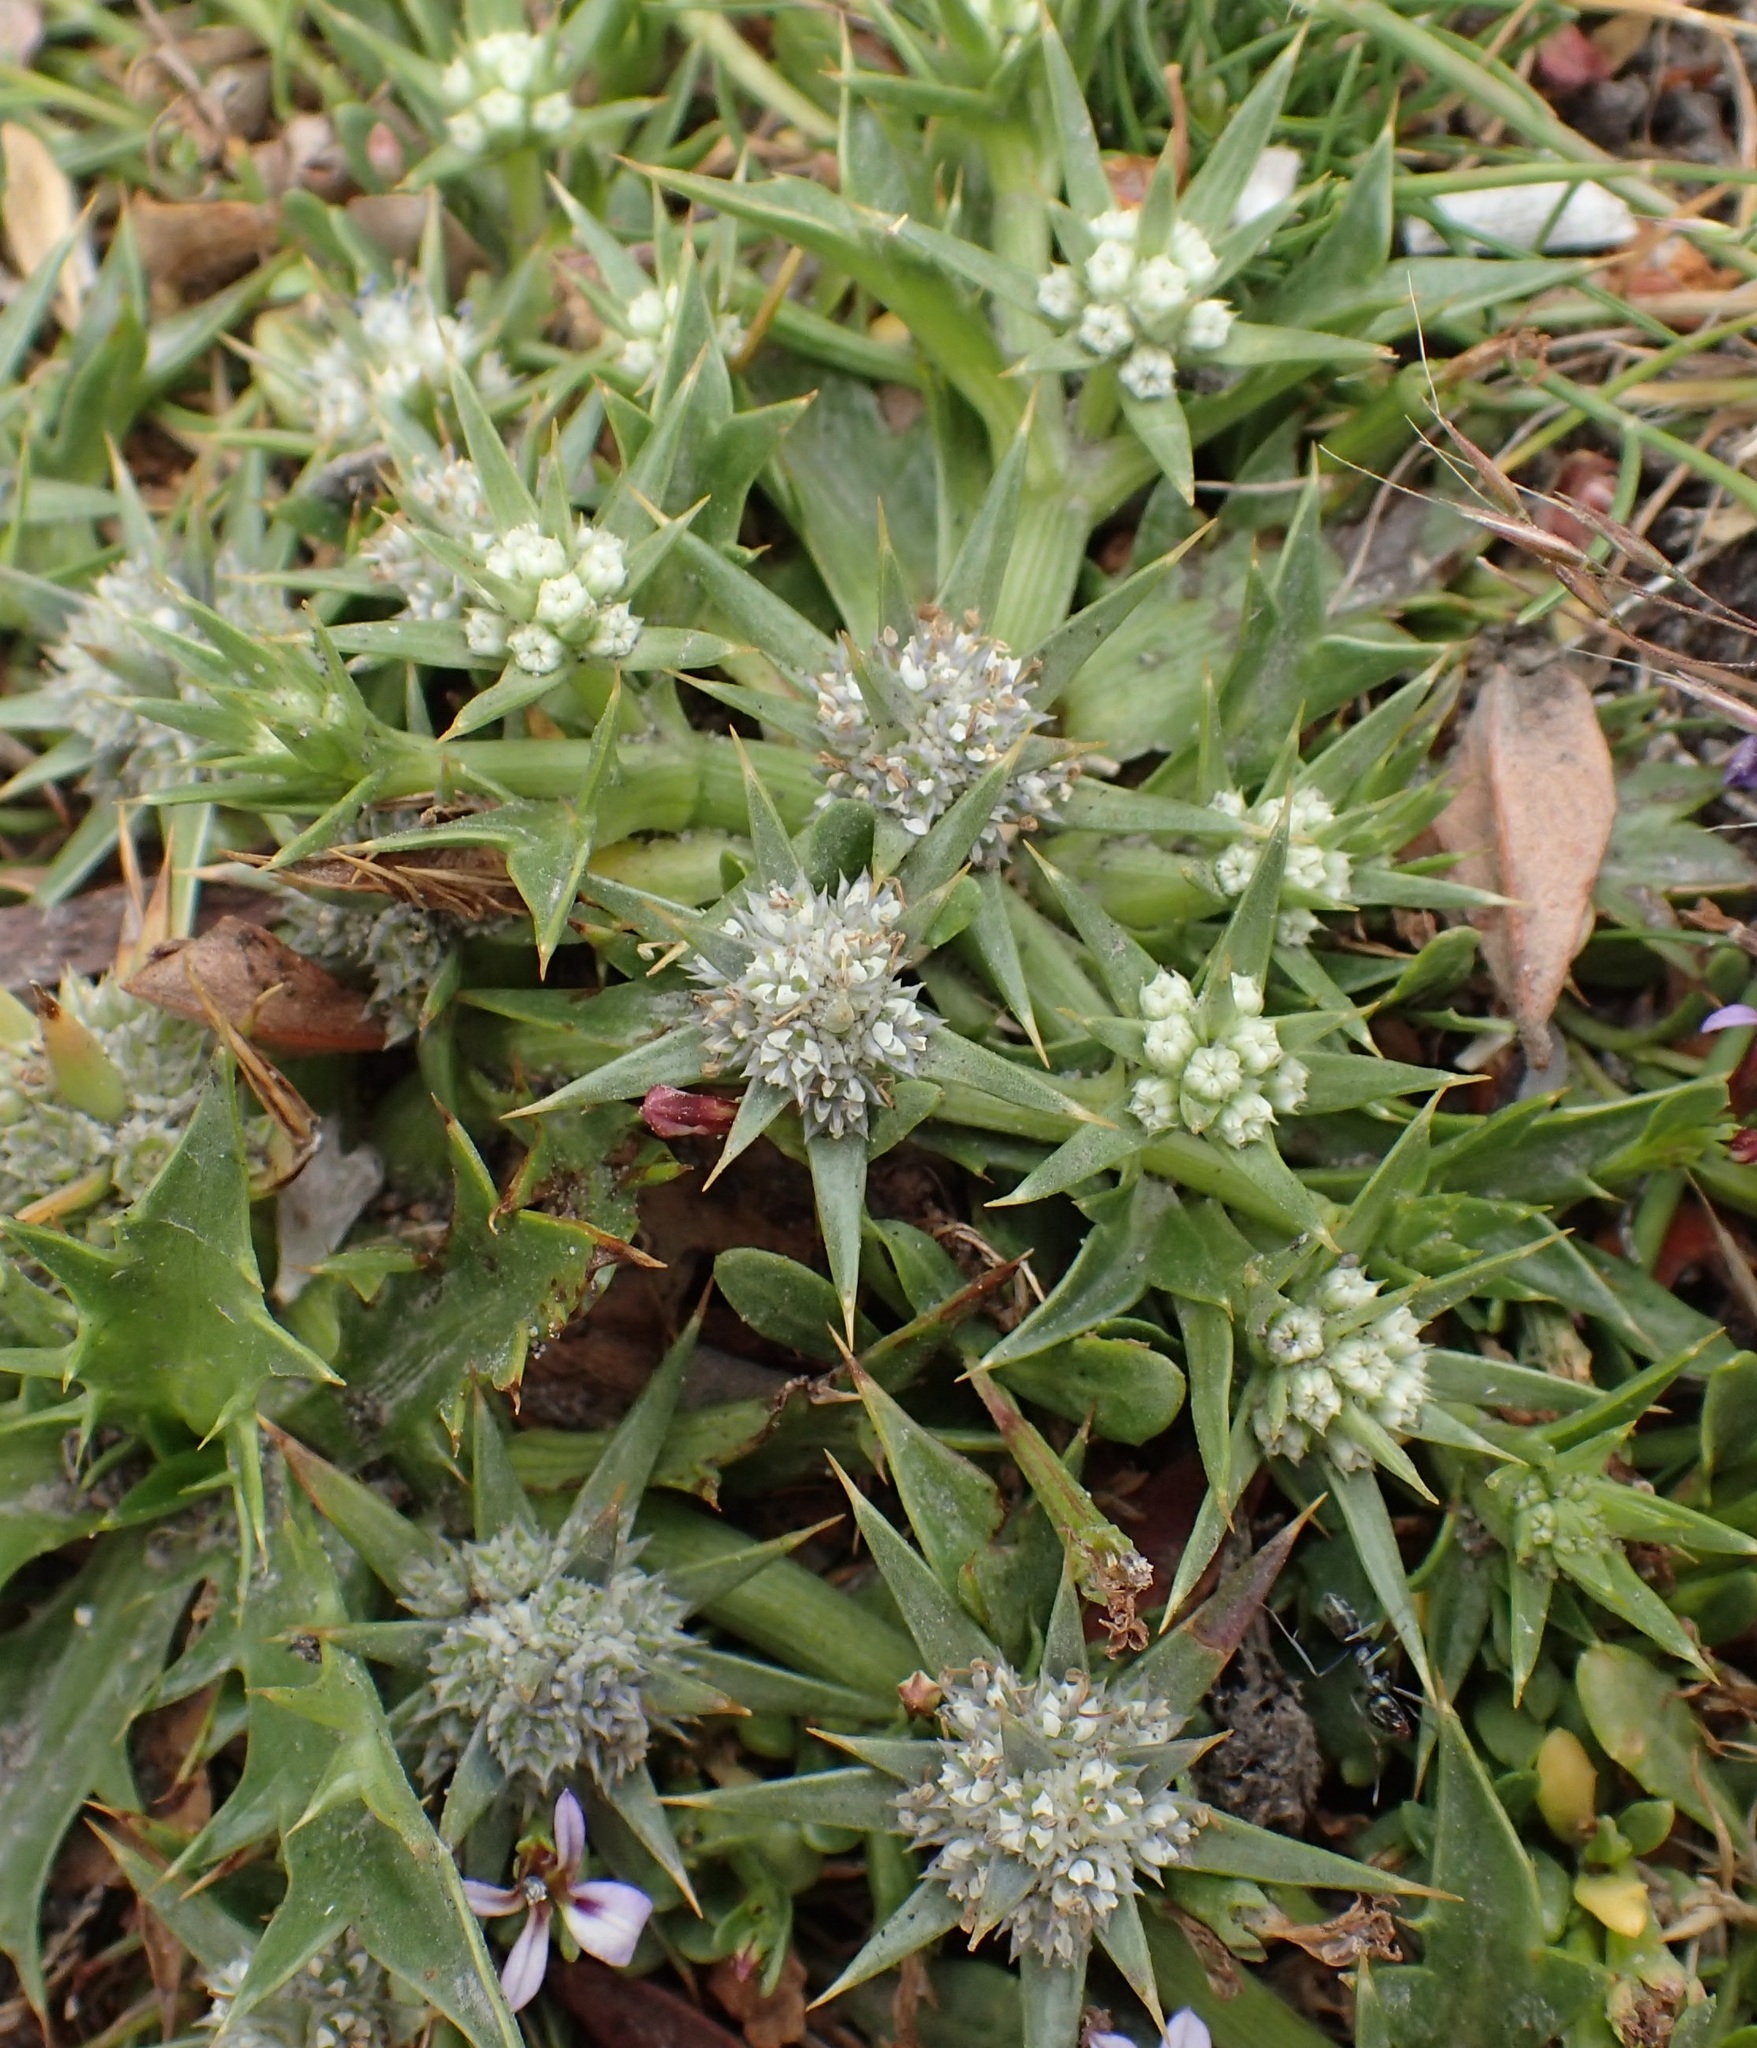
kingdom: Plantae
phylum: Tracheophyta
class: Magnoliopsida
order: Apiales
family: Apiaceae
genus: Eryngium
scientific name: Eryngium vesiculosum
